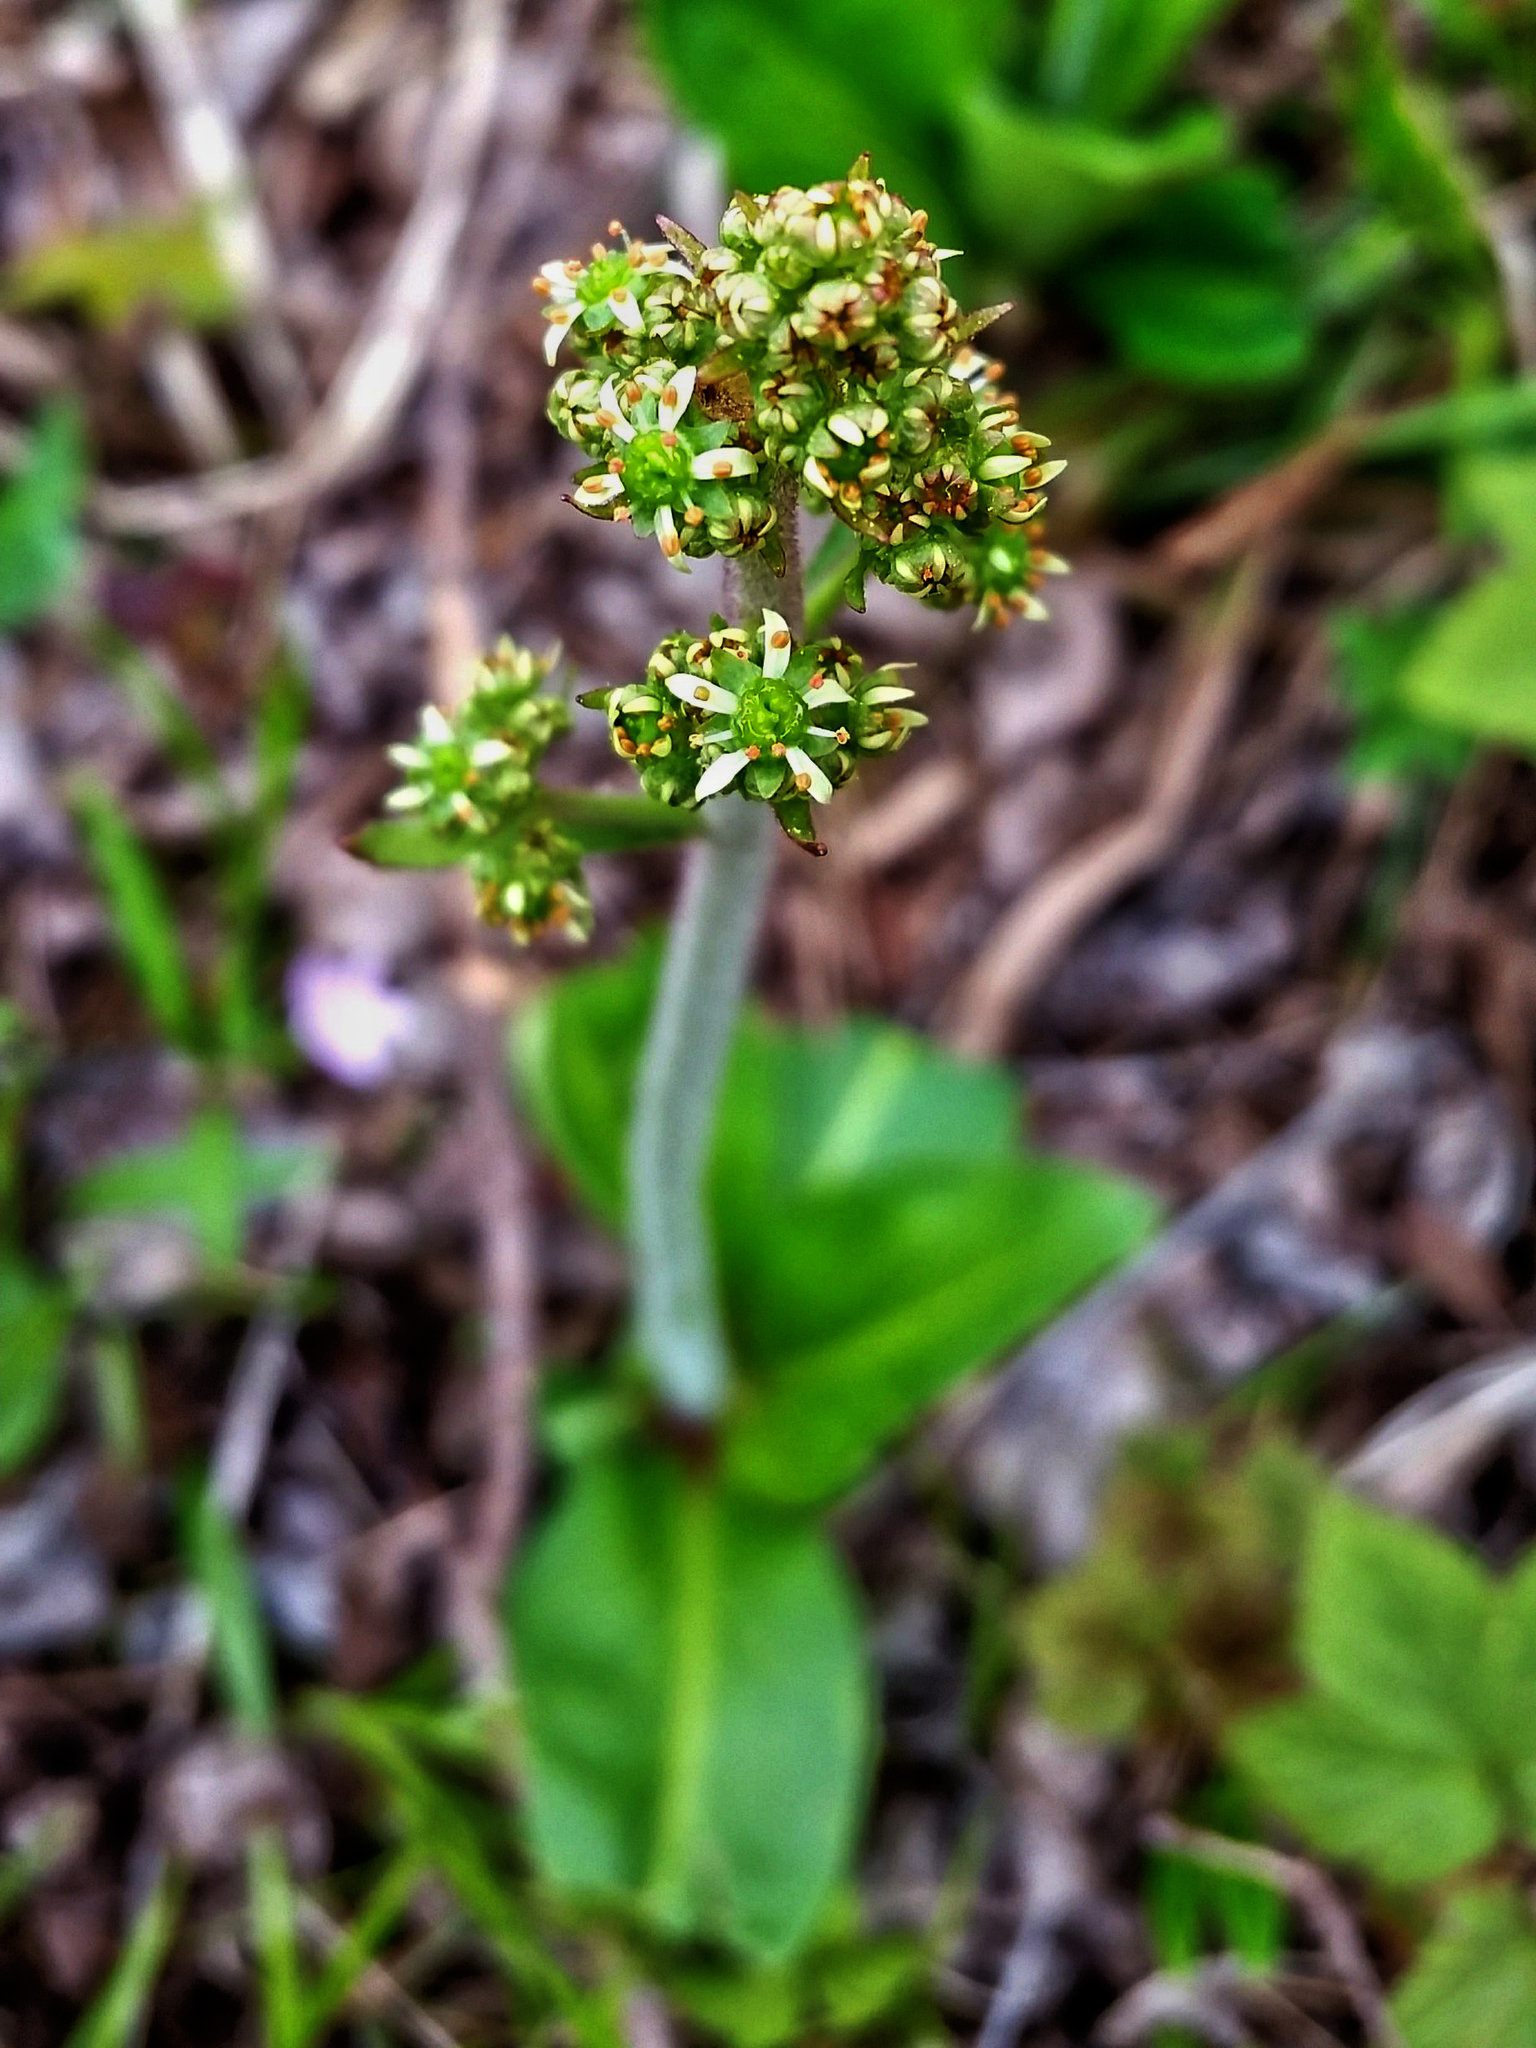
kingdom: Plantae
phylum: Tracheophyta
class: Magnoliopsida
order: Saxifragales
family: Saxifragaceae
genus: Micranthes
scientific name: Micranthes pensylvanica
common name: Marsh saxifrage
